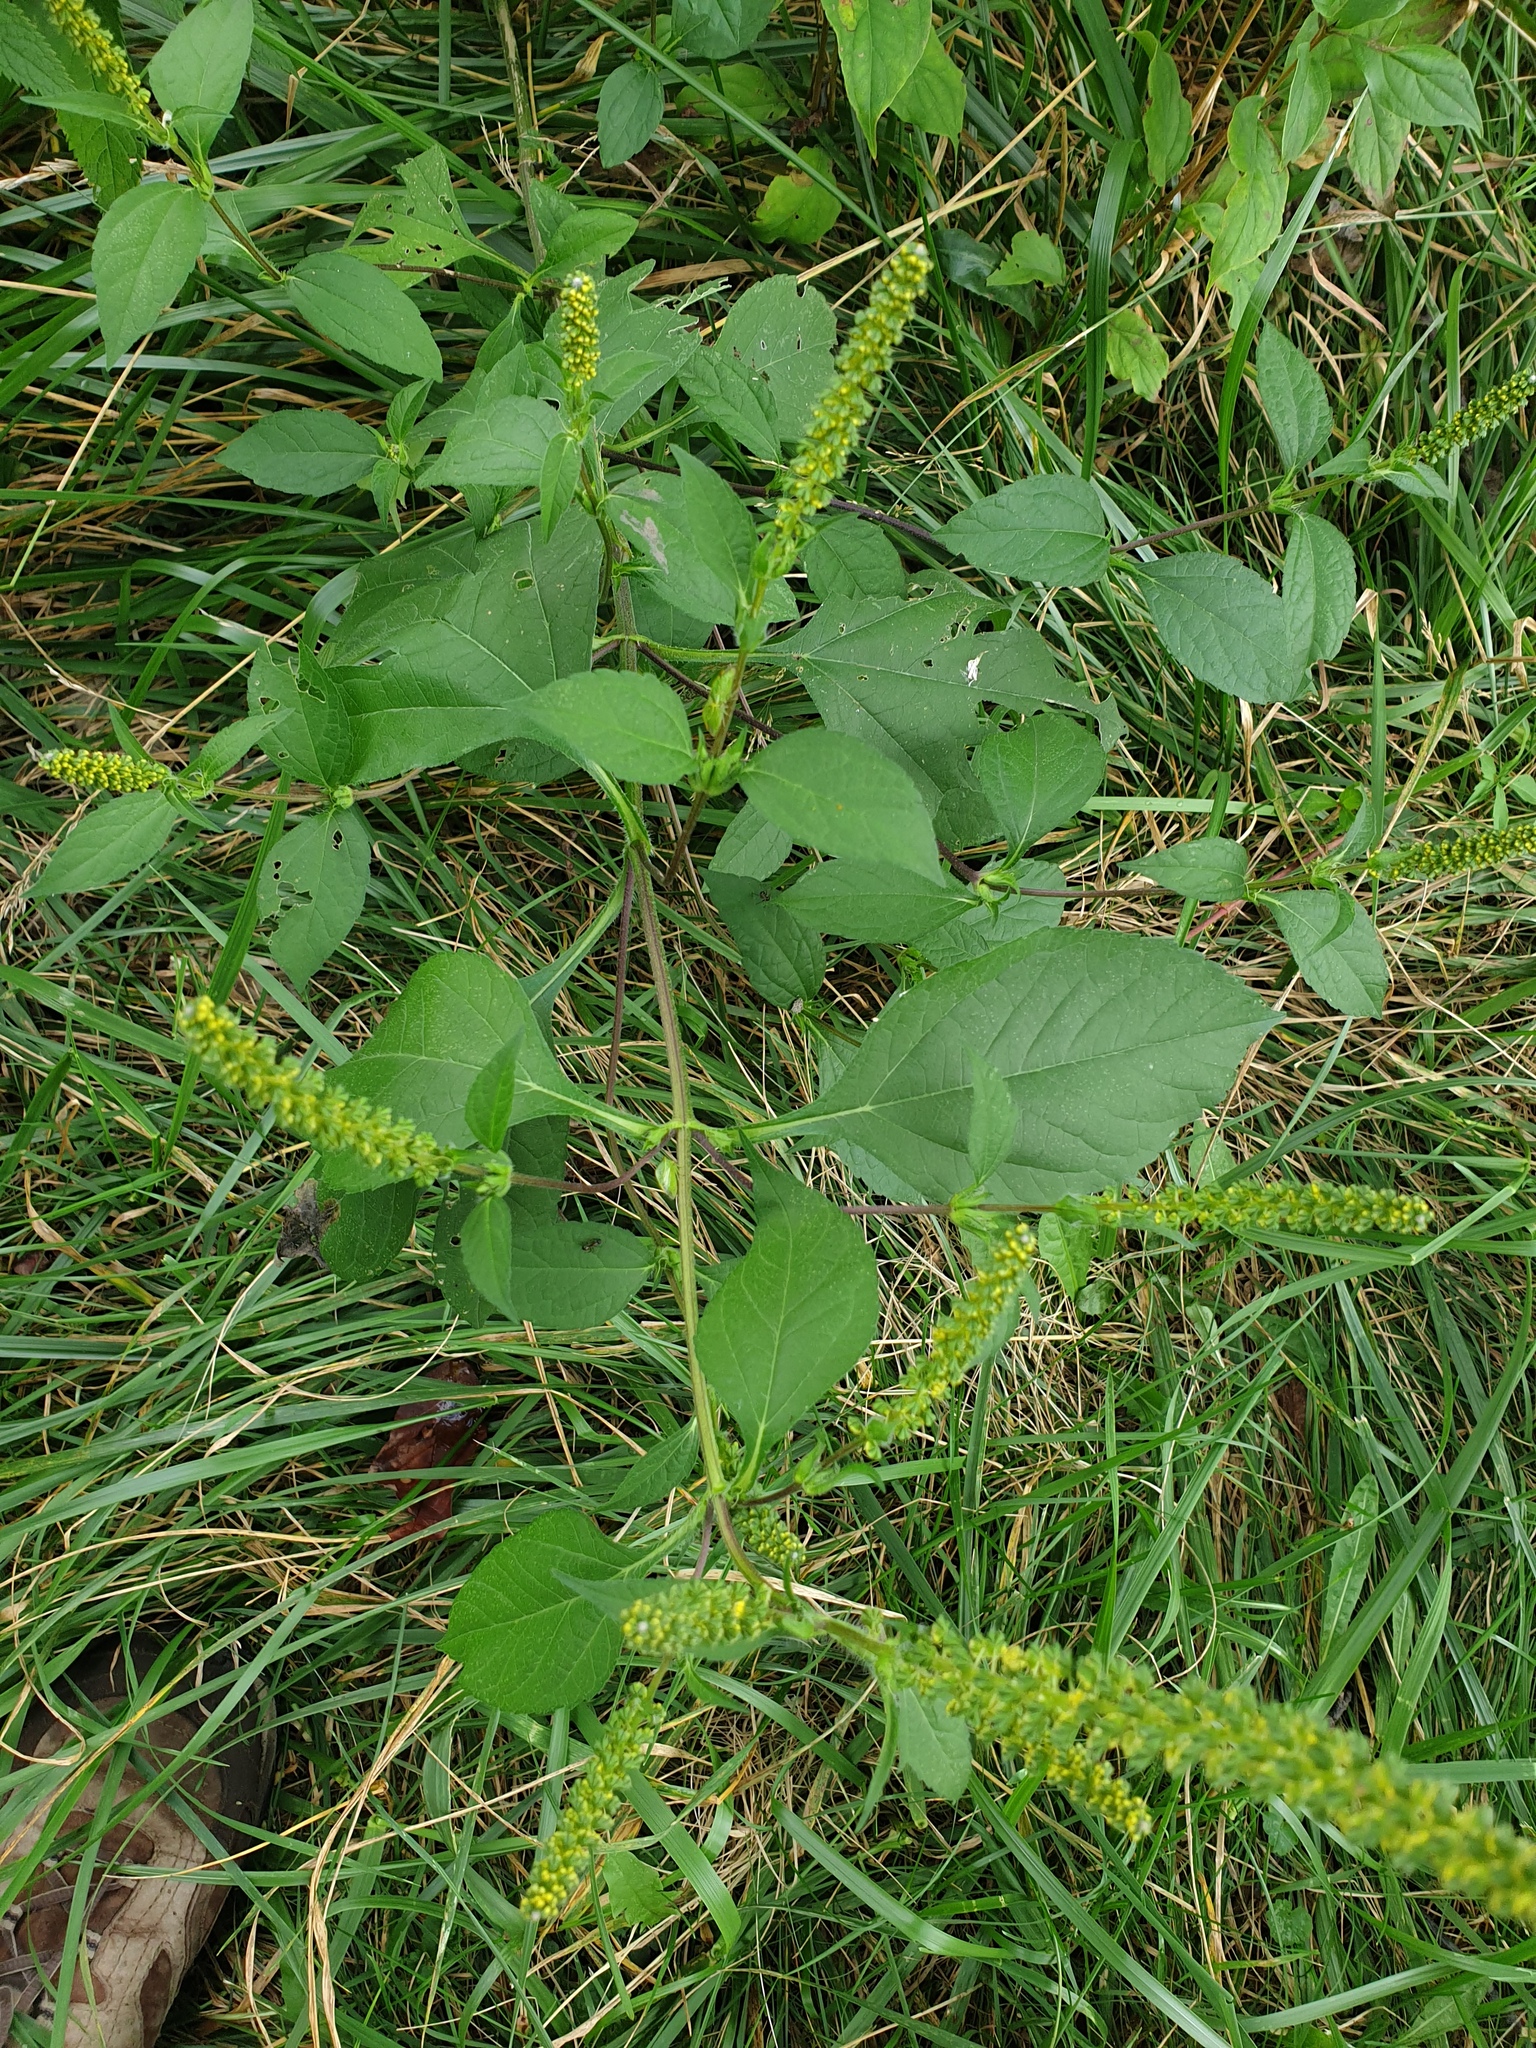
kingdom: Plantae
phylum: Tracheophyta
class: Magnoliopsida
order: Asterales
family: Asteraceae
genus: Ambrosia
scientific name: Ambrosia trifida
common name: Giant ragweed
